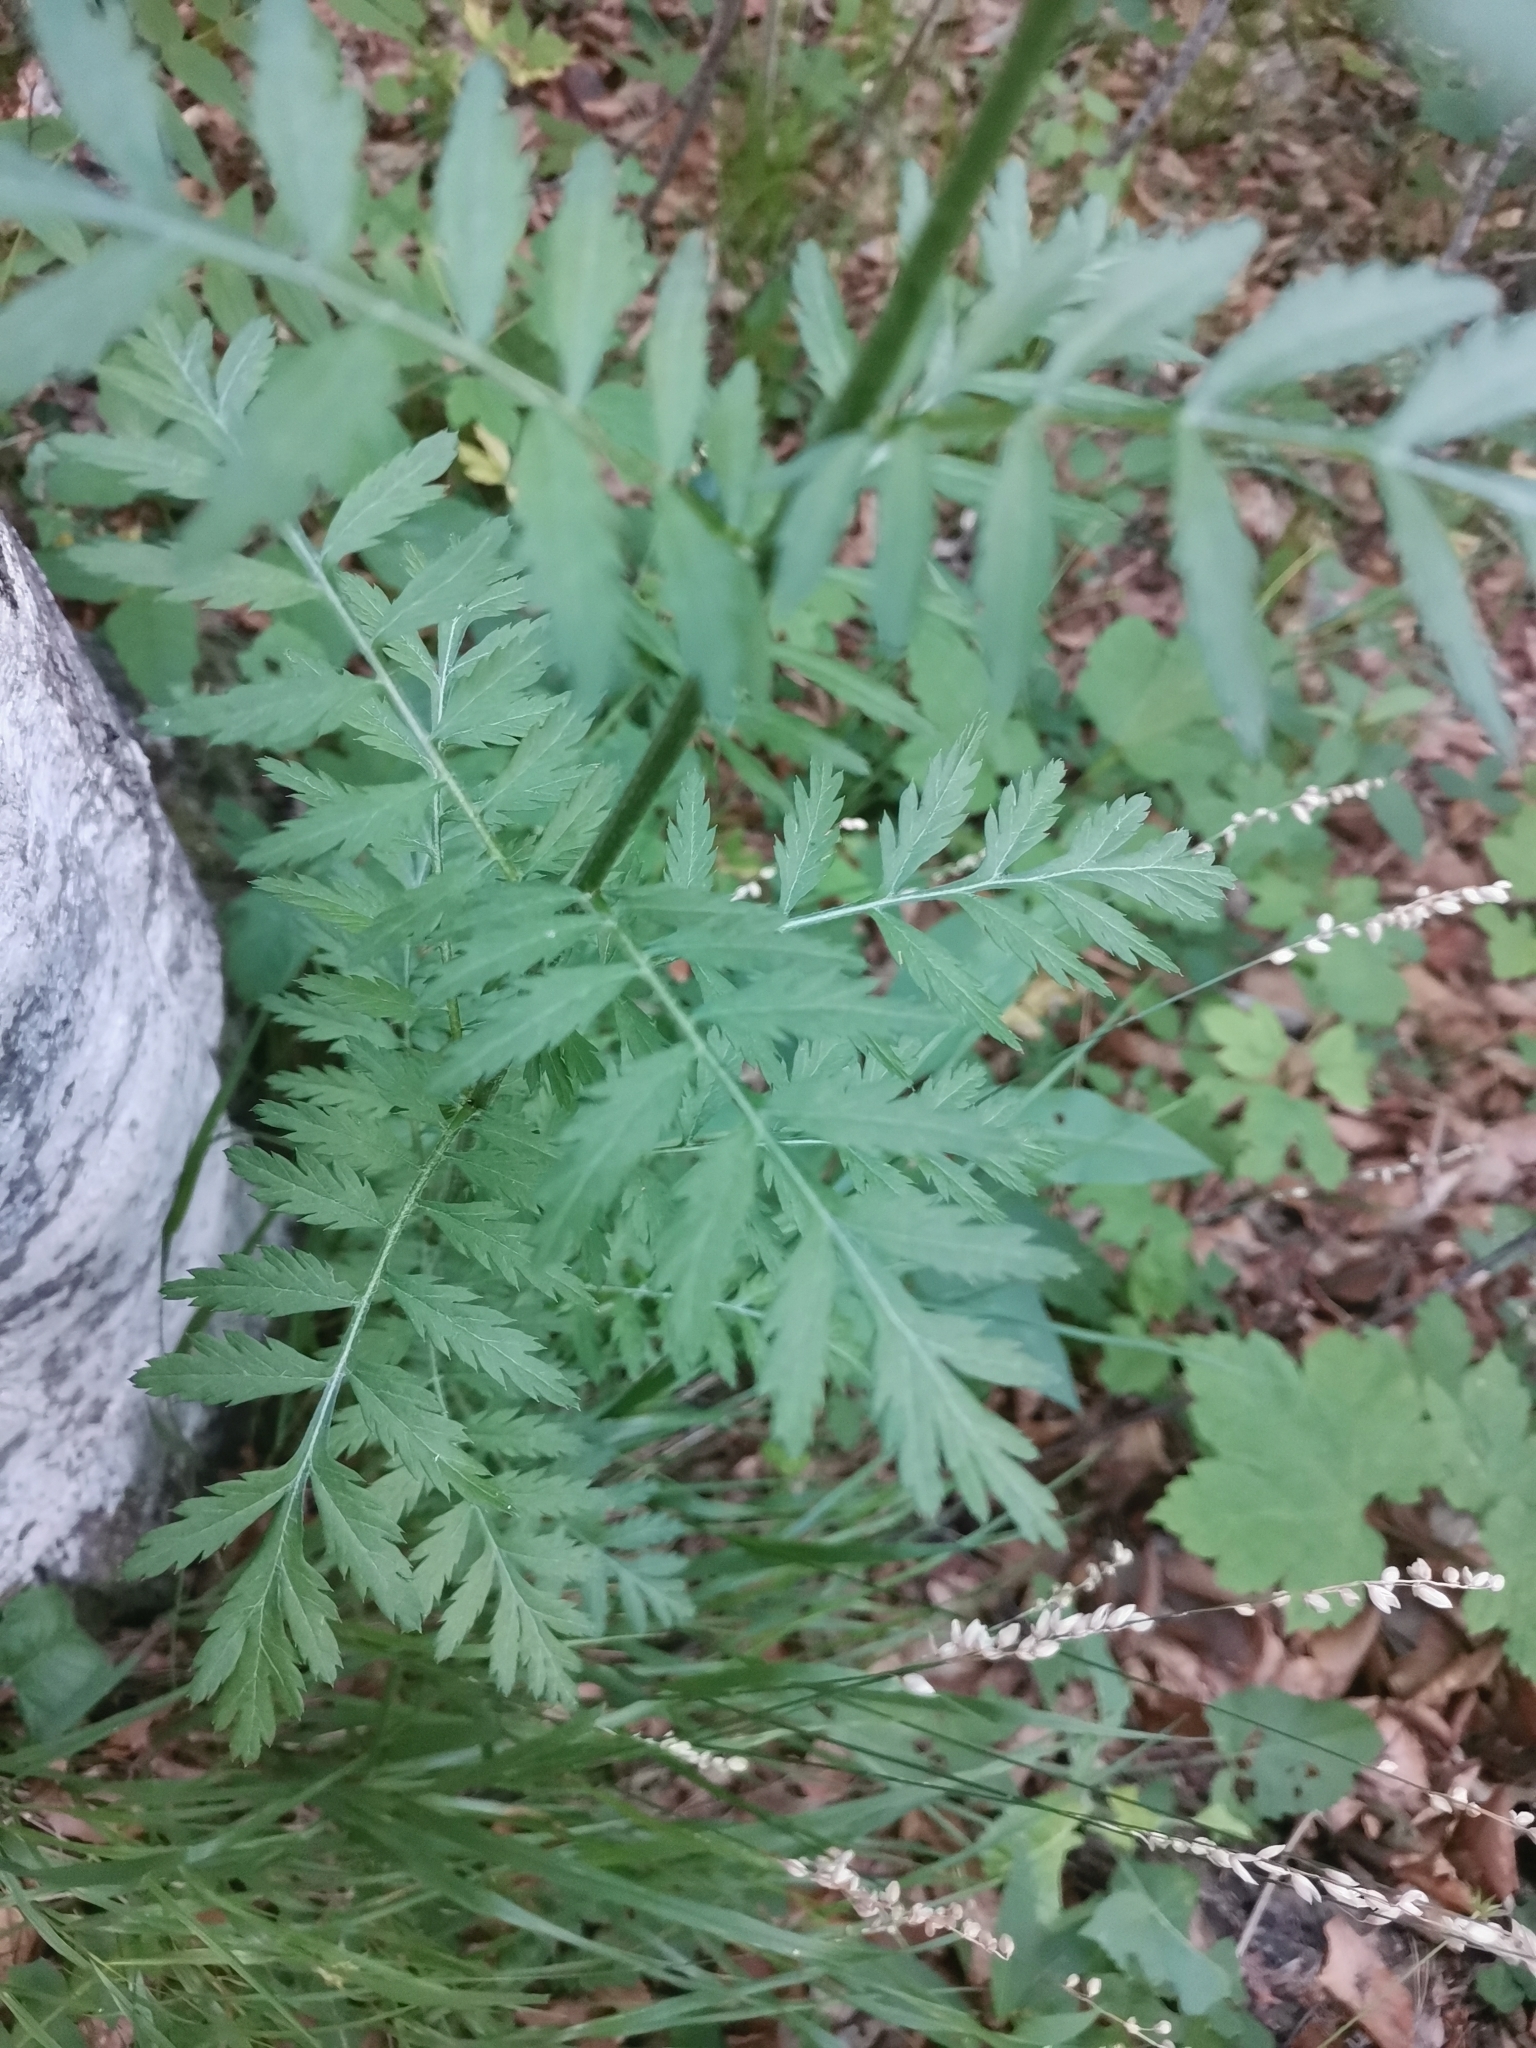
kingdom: Plantae
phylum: Tracheophyta
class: Magnoliopsida
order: Asterales
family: Asteraceae
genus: Tanacetum
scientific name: Tanacetum corymbosum
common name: Scentless feverfew
